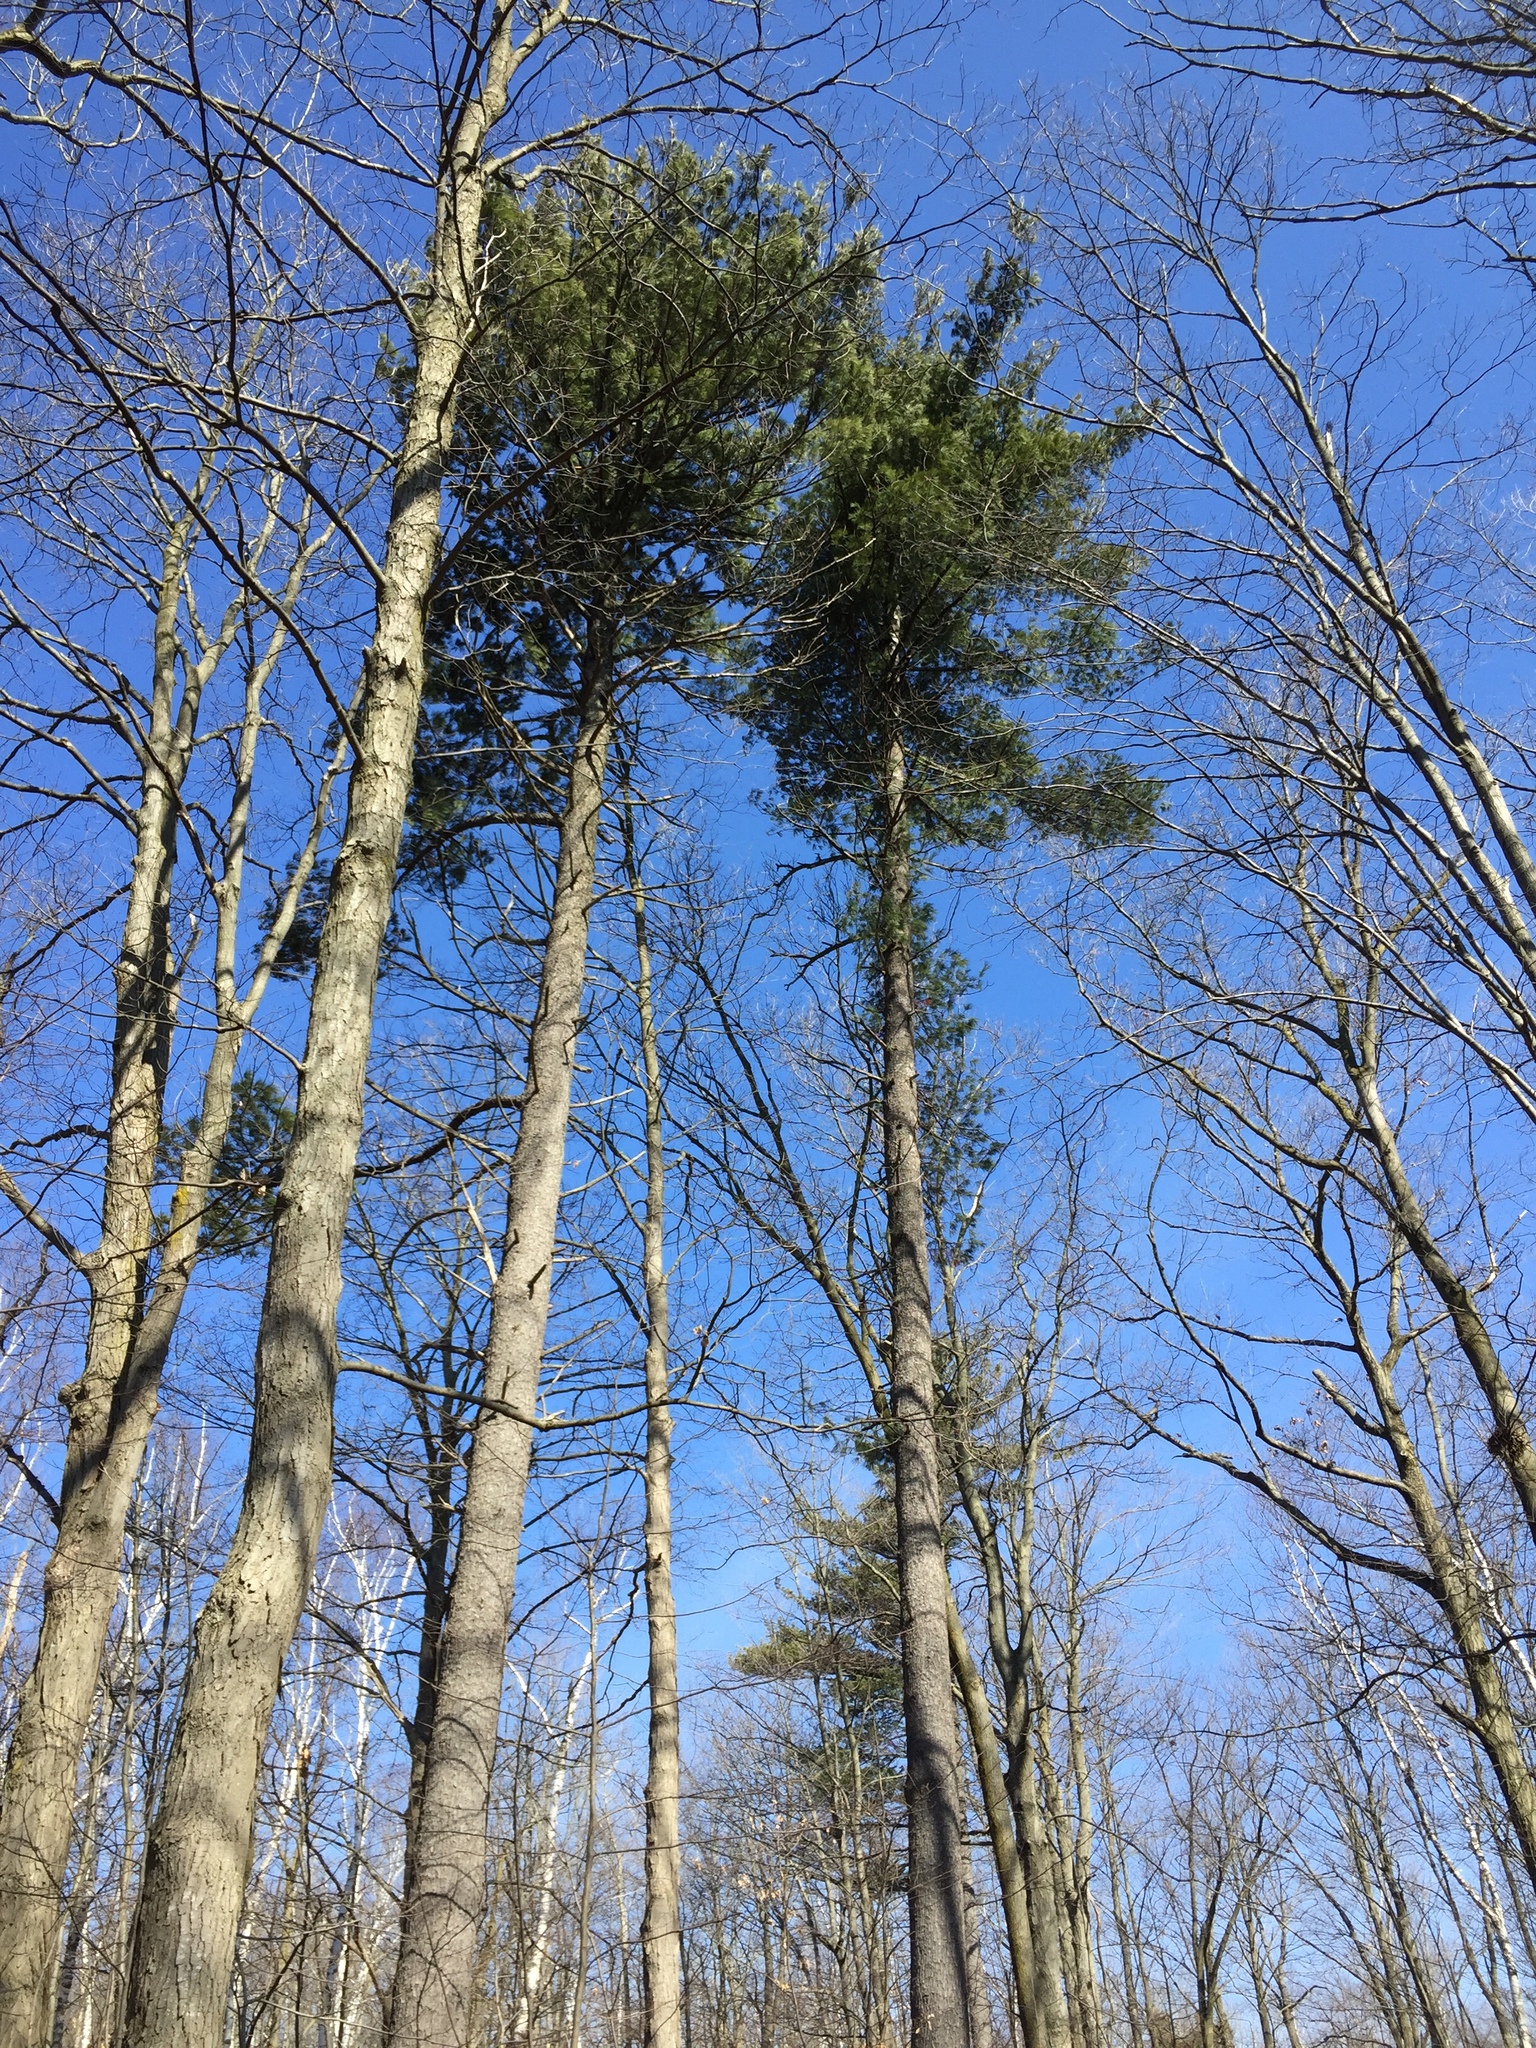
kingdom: Plantae
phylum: Tracheophyta
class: Pinopsida
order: Pinales
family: Pinaceae
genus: Pinus
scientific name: Pinus strobus
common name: Weymouth pine
